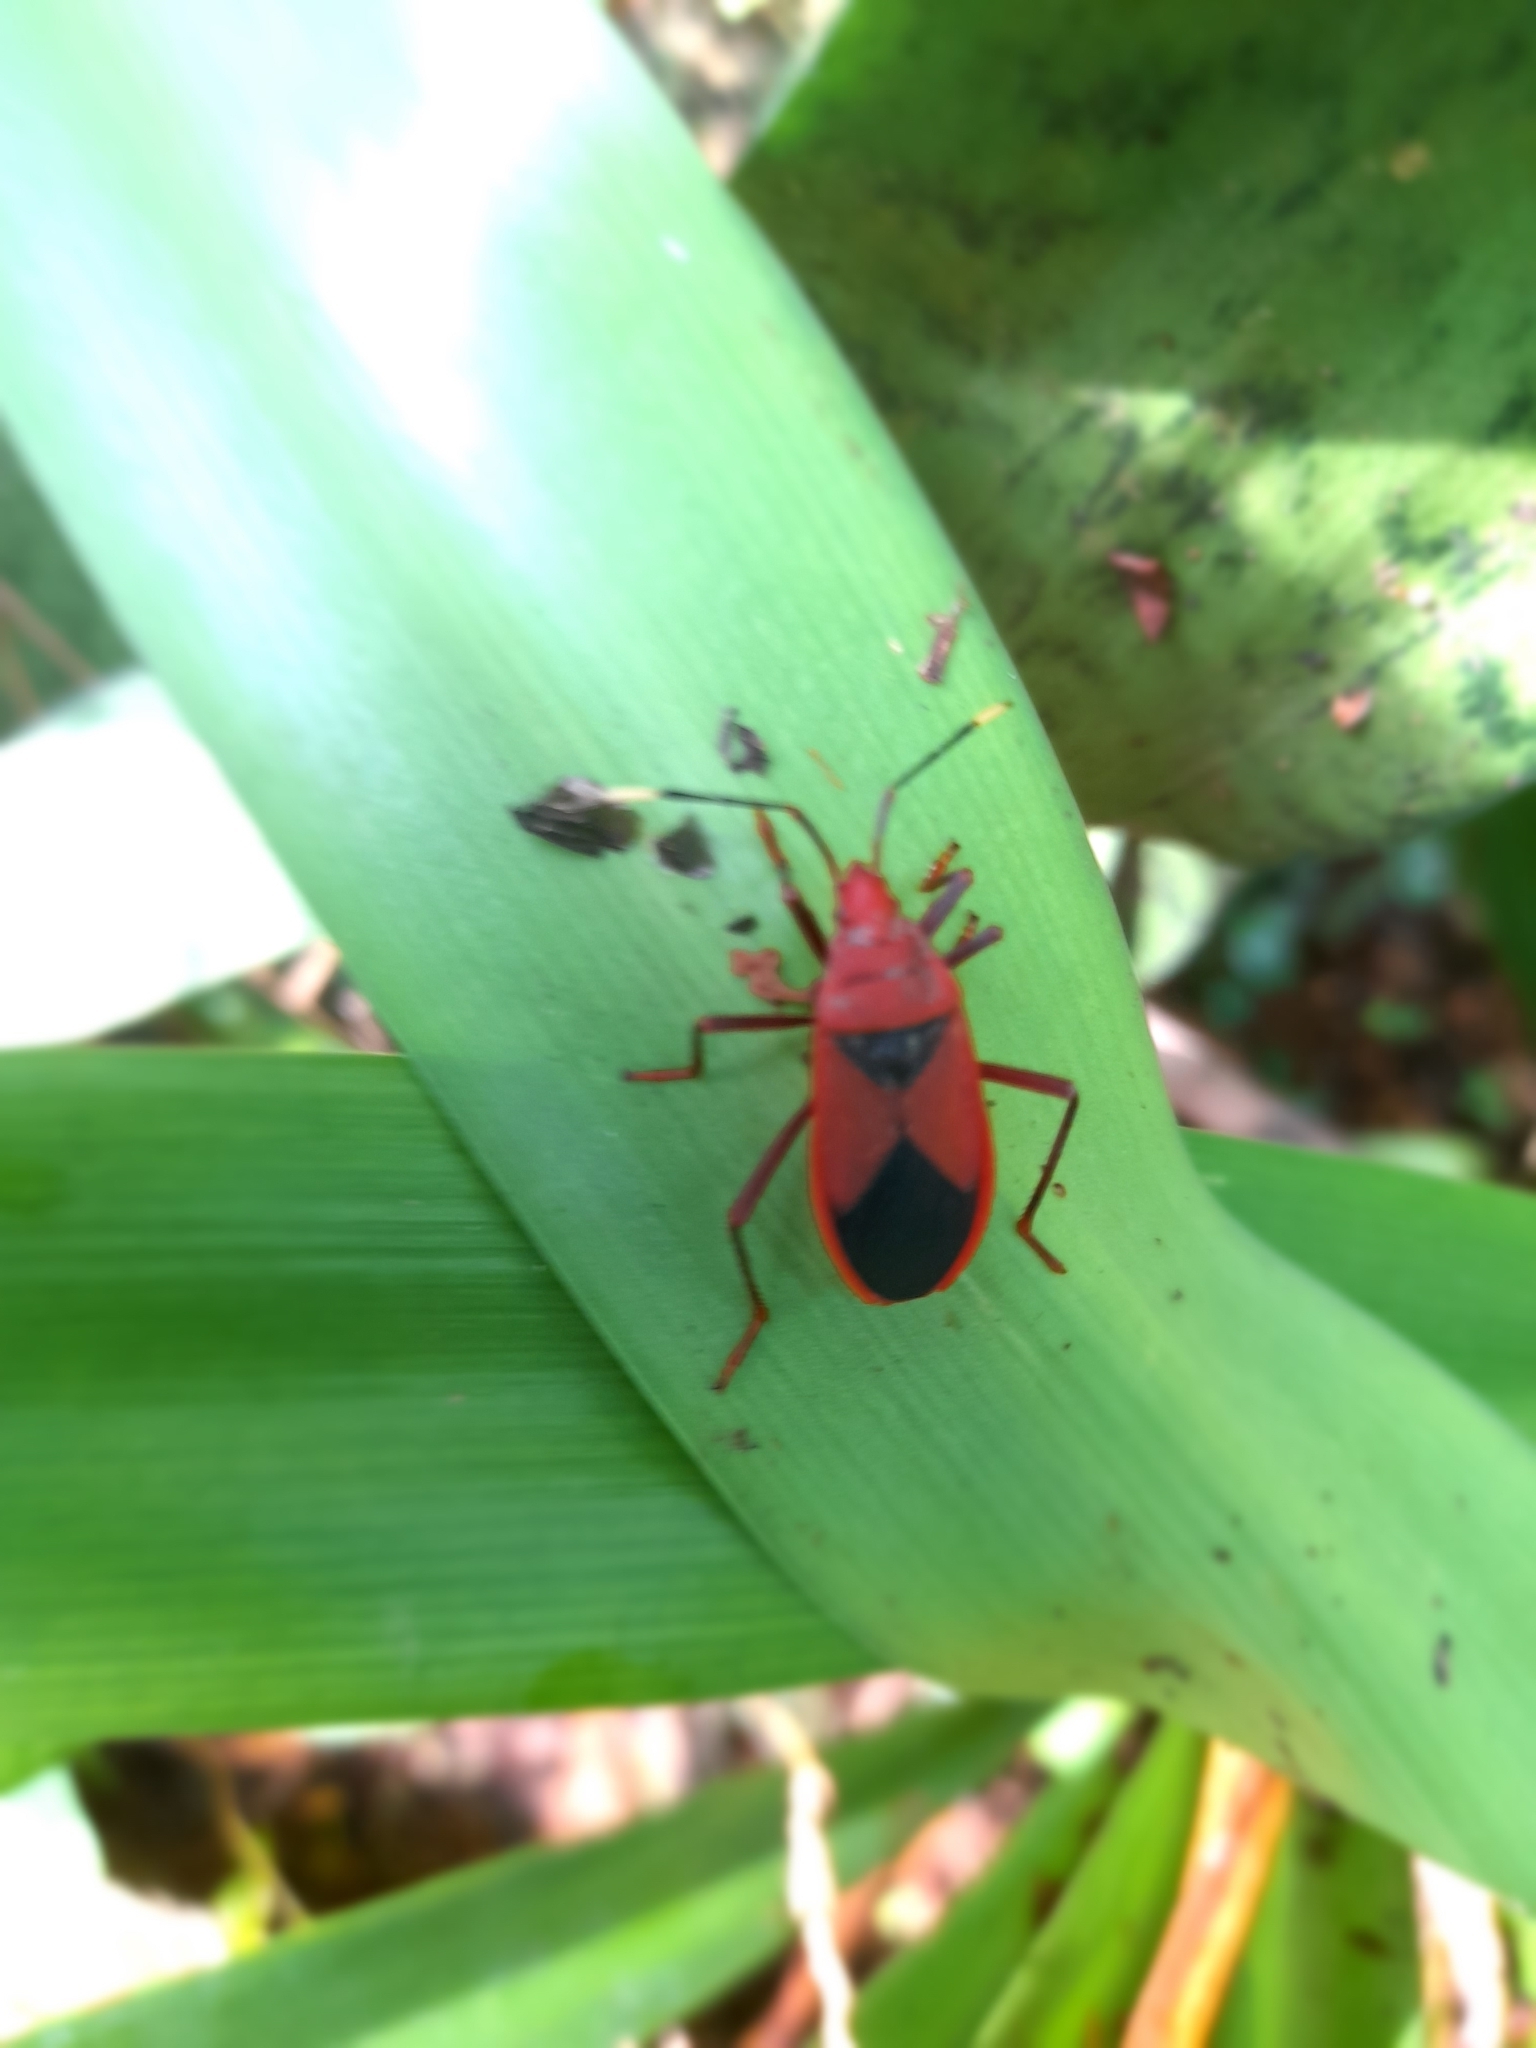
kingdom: Animalia
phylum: Arthropoda
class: Insecta
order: Hemiptera
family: Pyrrhocoridae
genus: Probergrothius
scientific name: Probergrothius
